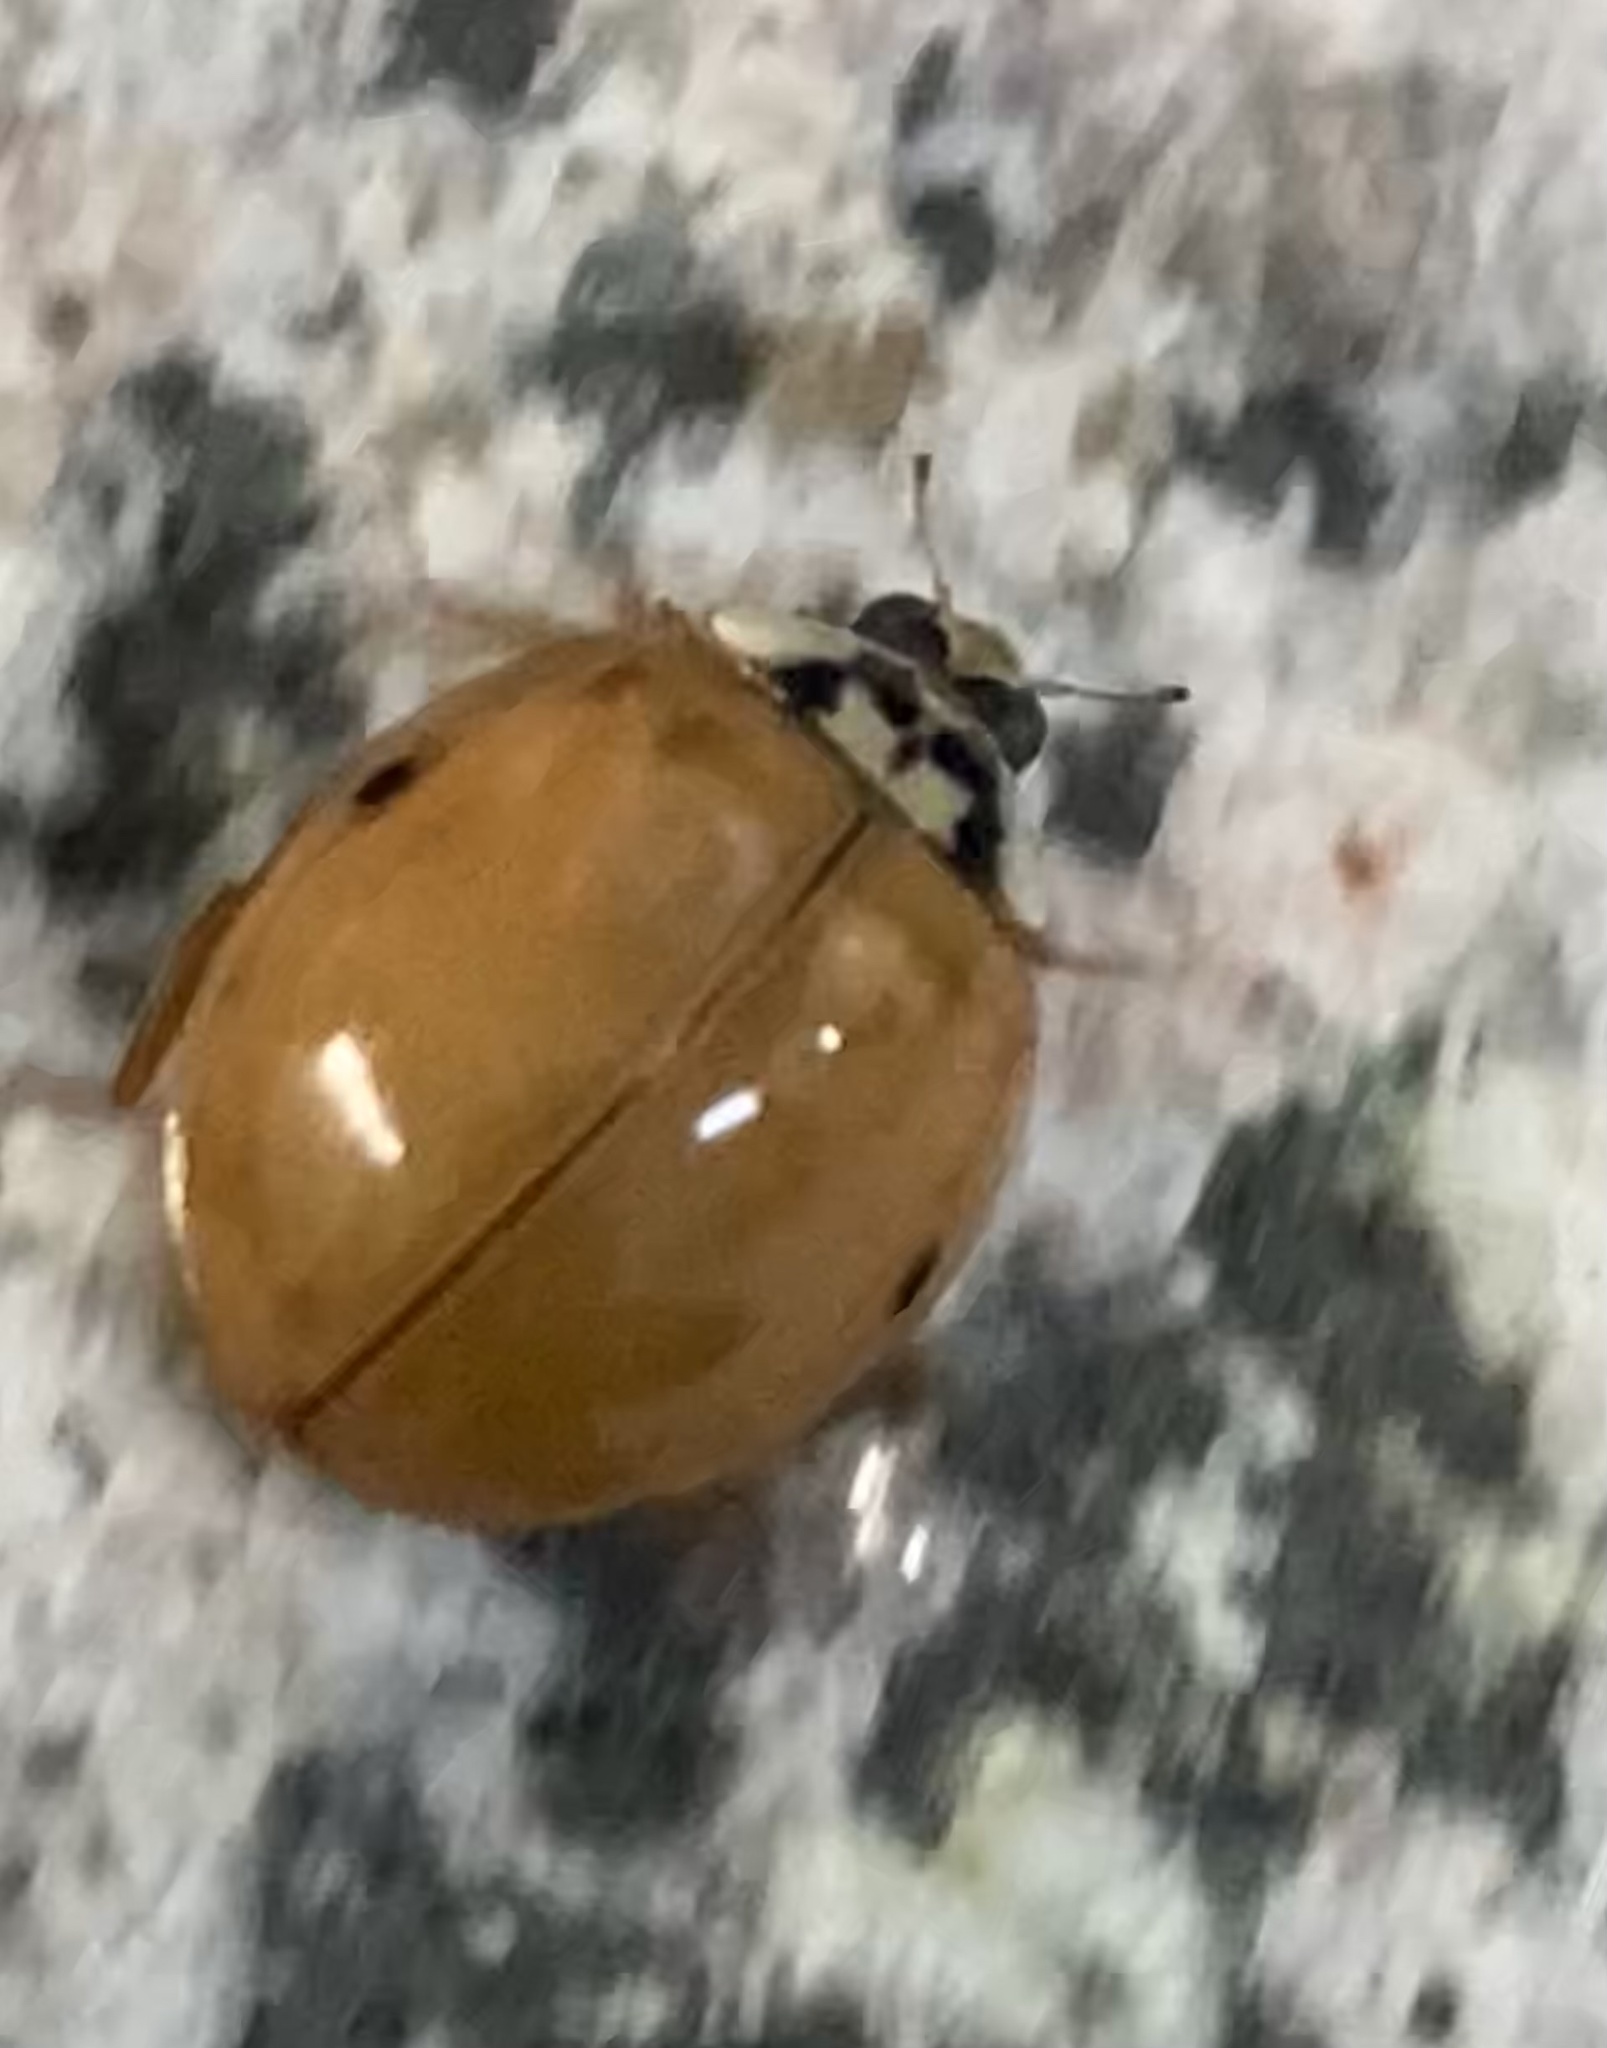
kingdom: Animalia
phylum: Arthropoda
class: Insecta
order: Coleoptera
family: Coccinellidae
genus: Harmonia
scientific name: Harmonia axyridis
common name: Harlequin ladybird
